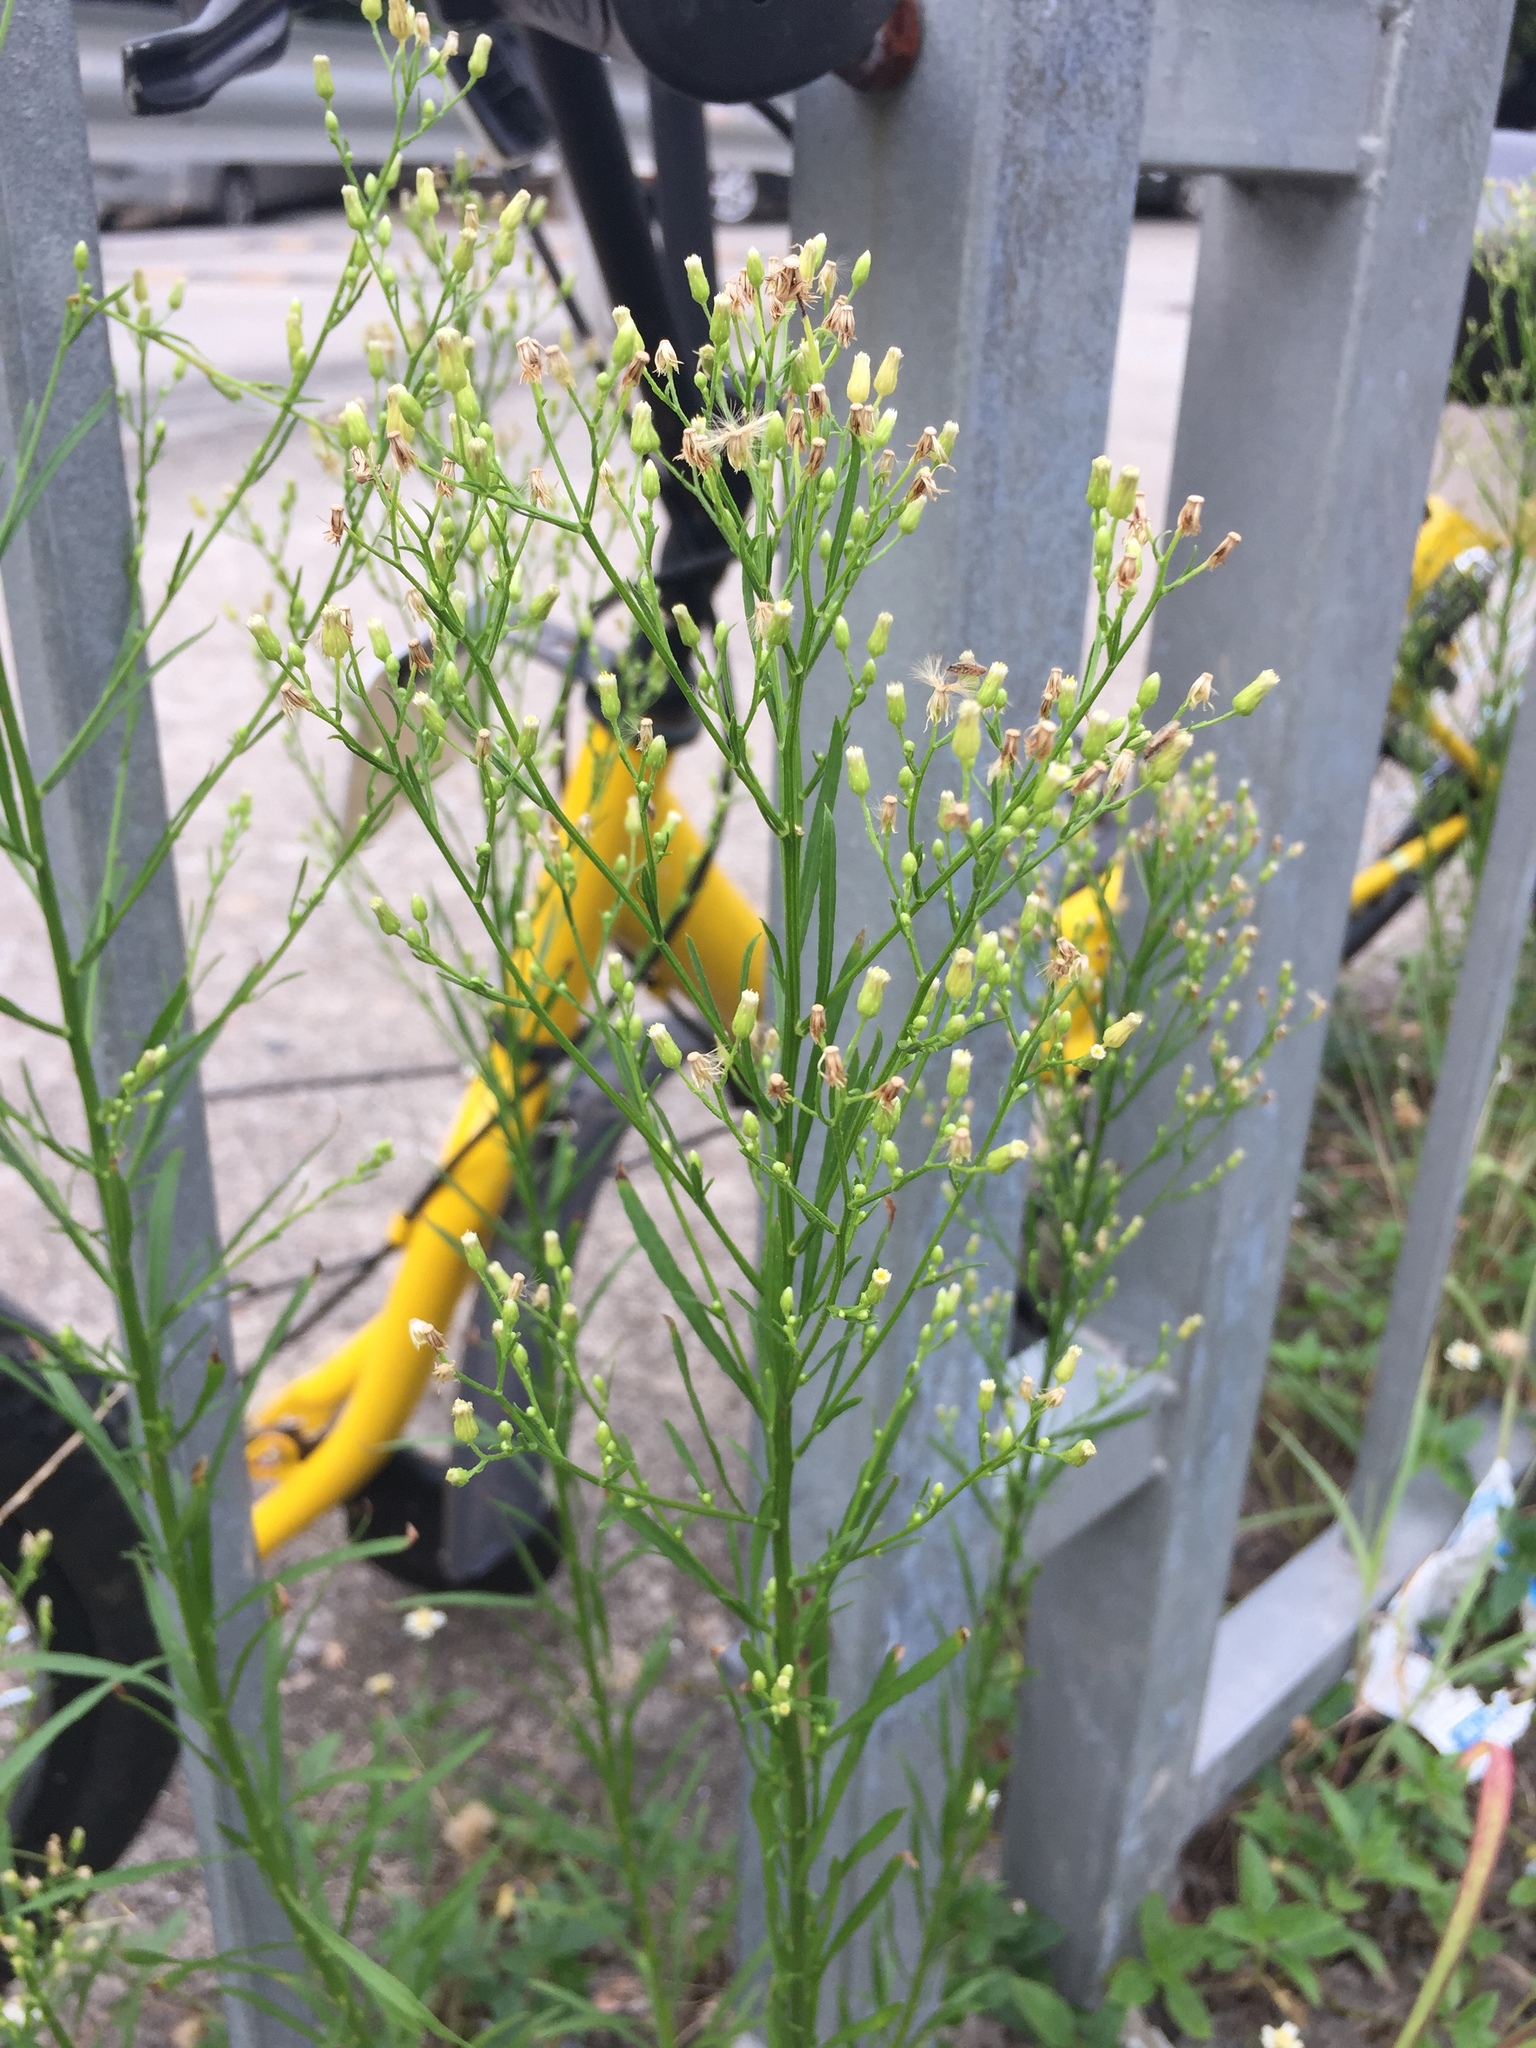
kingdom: Plantae
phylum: Tracheophyta
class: Magnoliopsida
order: Asterales
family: Asteraceae
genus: Symphyotrichum
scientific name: Symphyotrichum subulatum
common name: Annual saltmarsh aster
